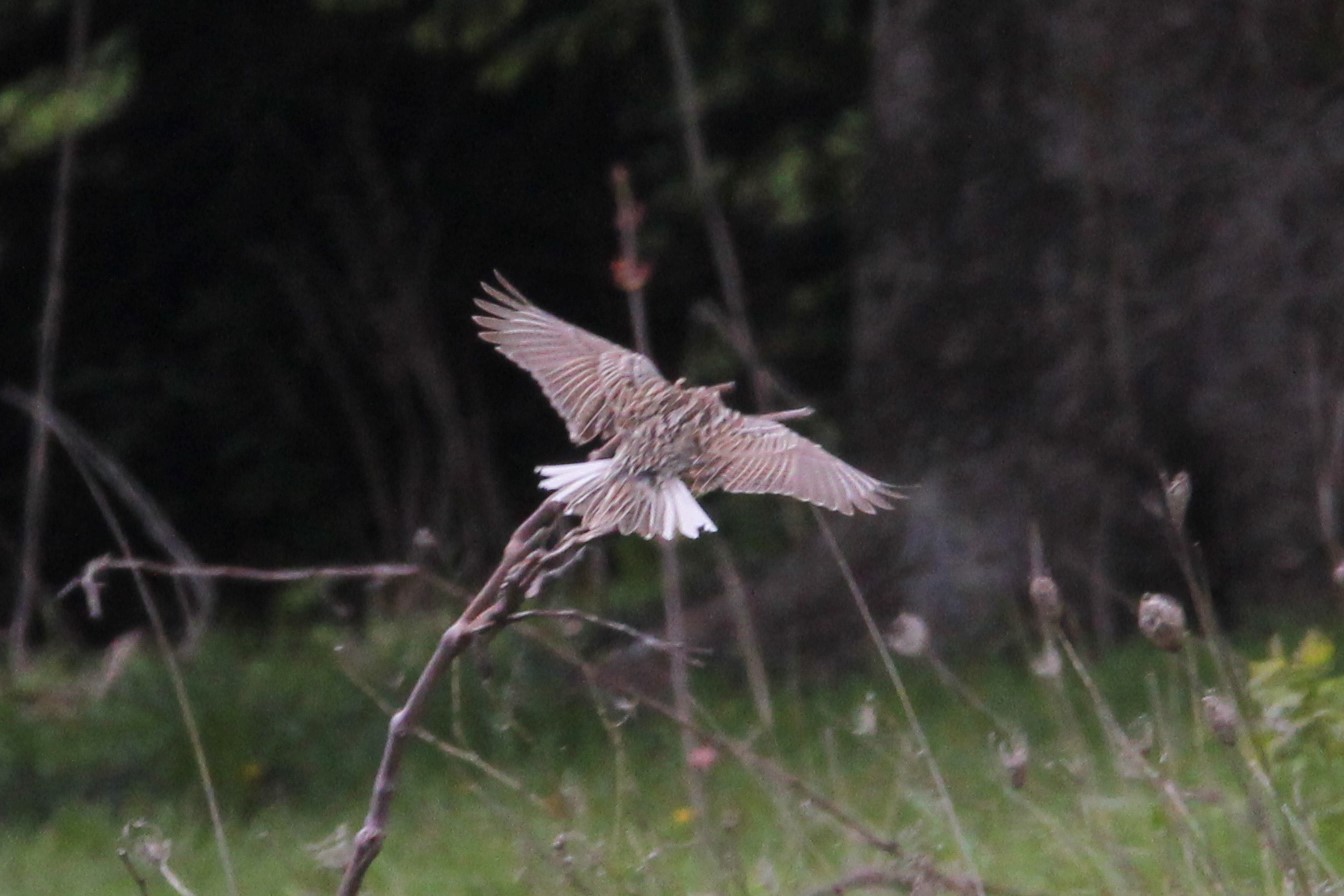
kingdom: Animalia
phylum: Chordata
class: Aves
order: Passeriformes
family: Icteridae
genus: Sturnella
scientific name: Sturnella neglecta
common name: Western meadowlark
